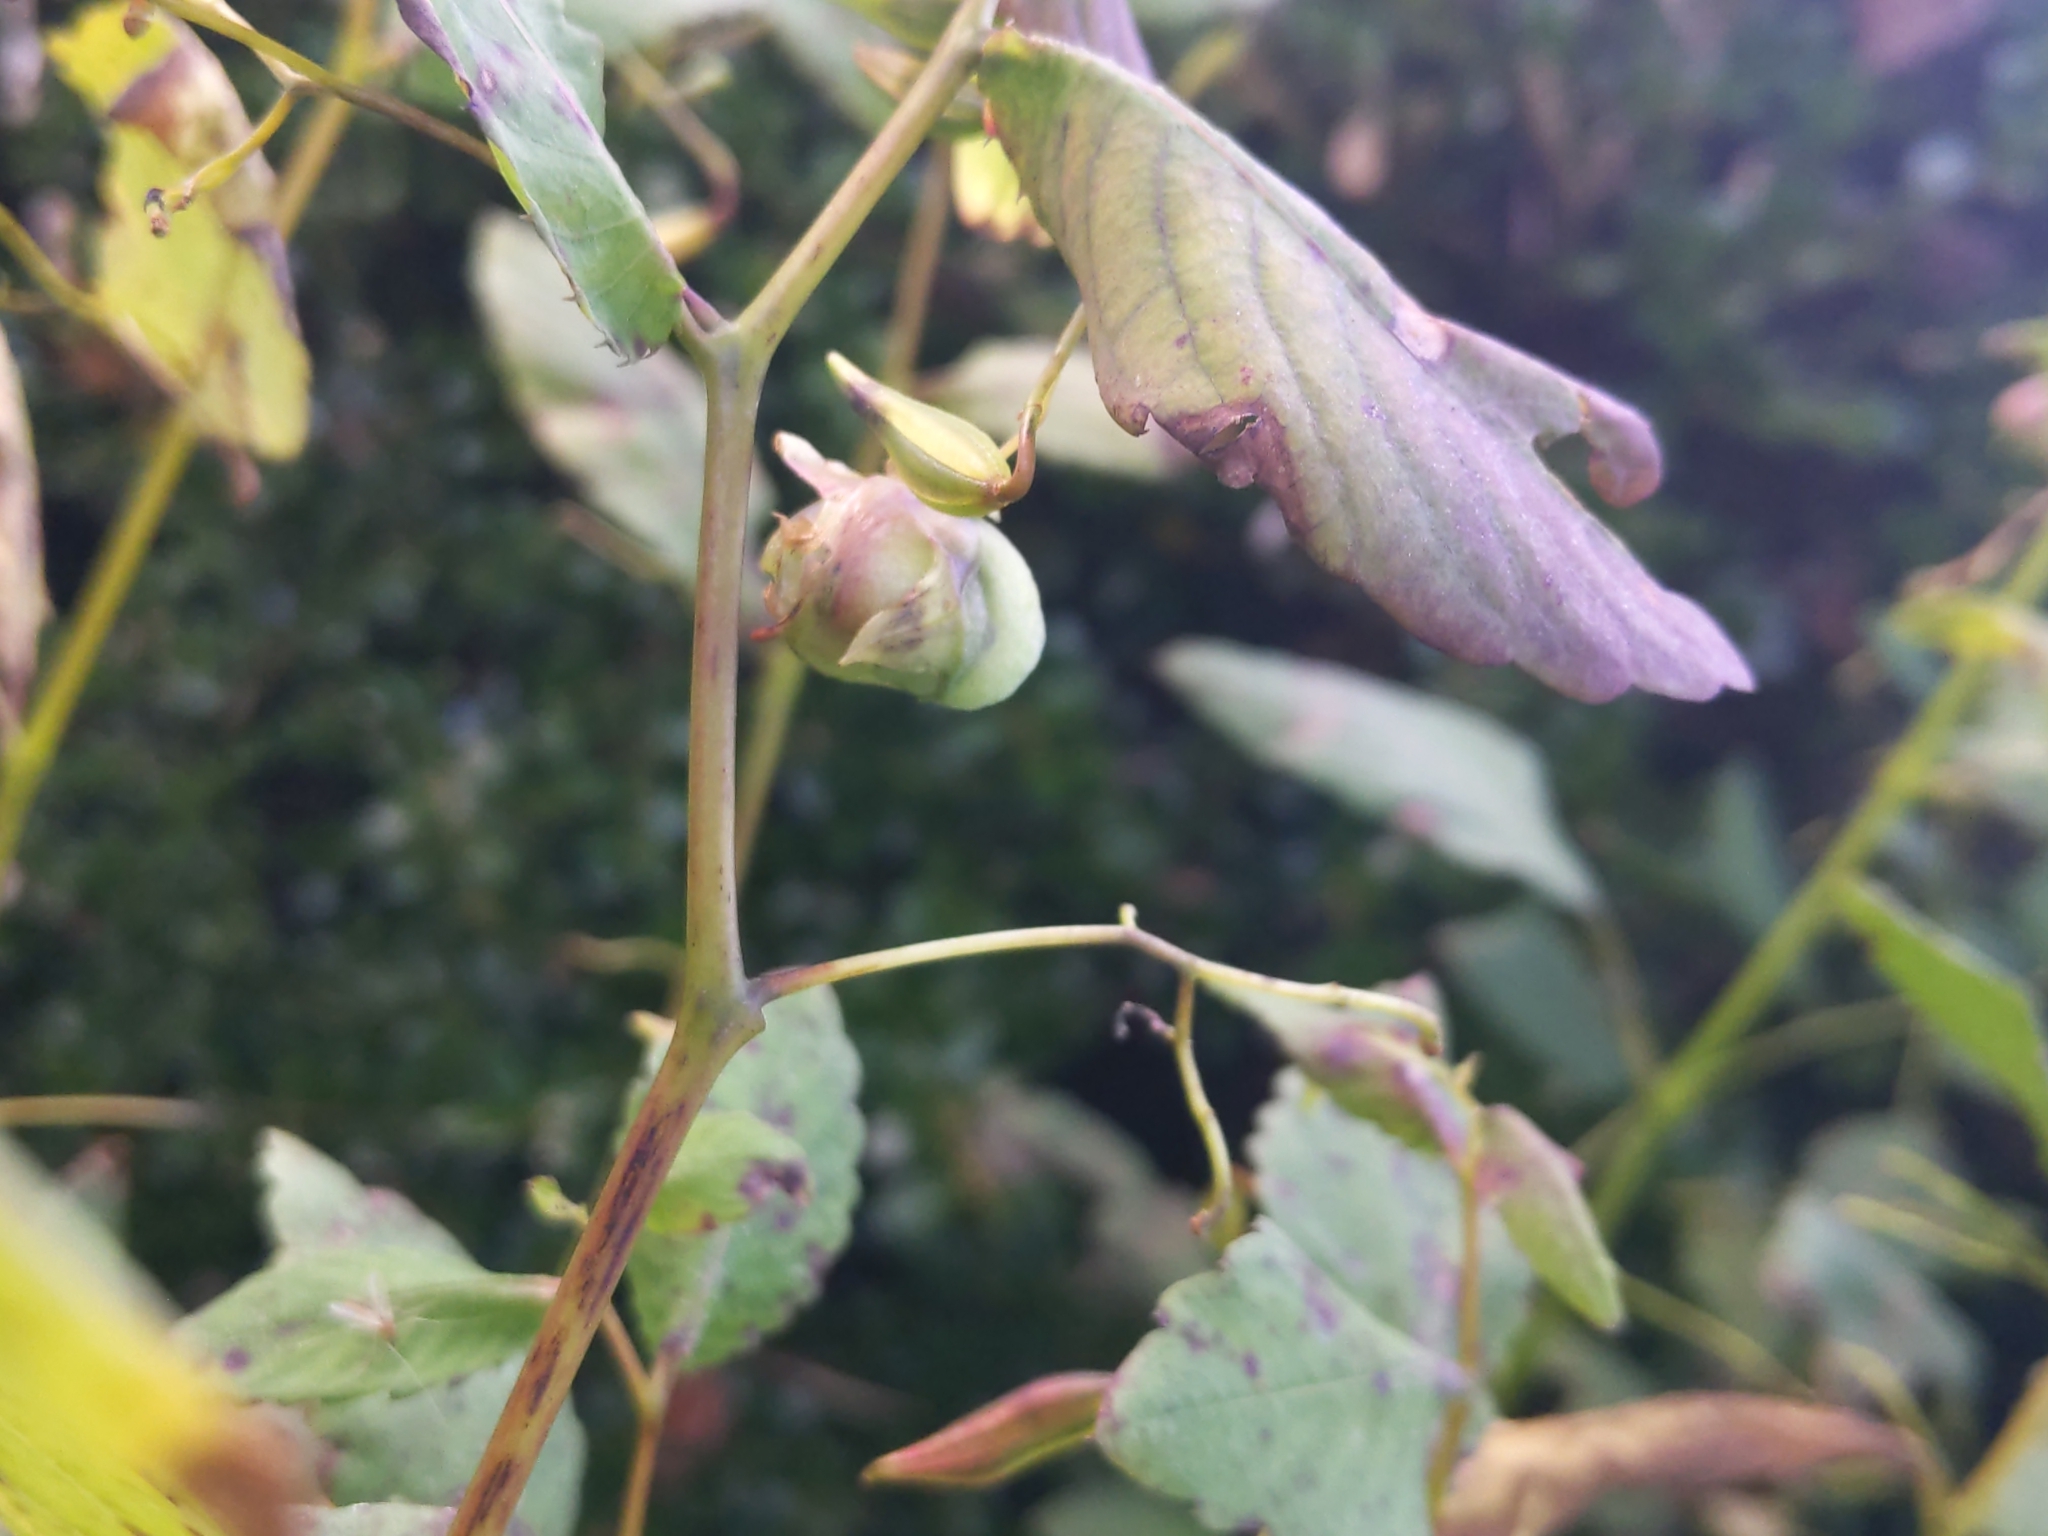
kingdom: Animalia
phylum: Arthropoda
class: Insecta
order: Diptera
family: Cecidomyiidae
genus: Schizomyia
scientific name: Schizomyia impatientis
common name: Jewelweed gall midge
